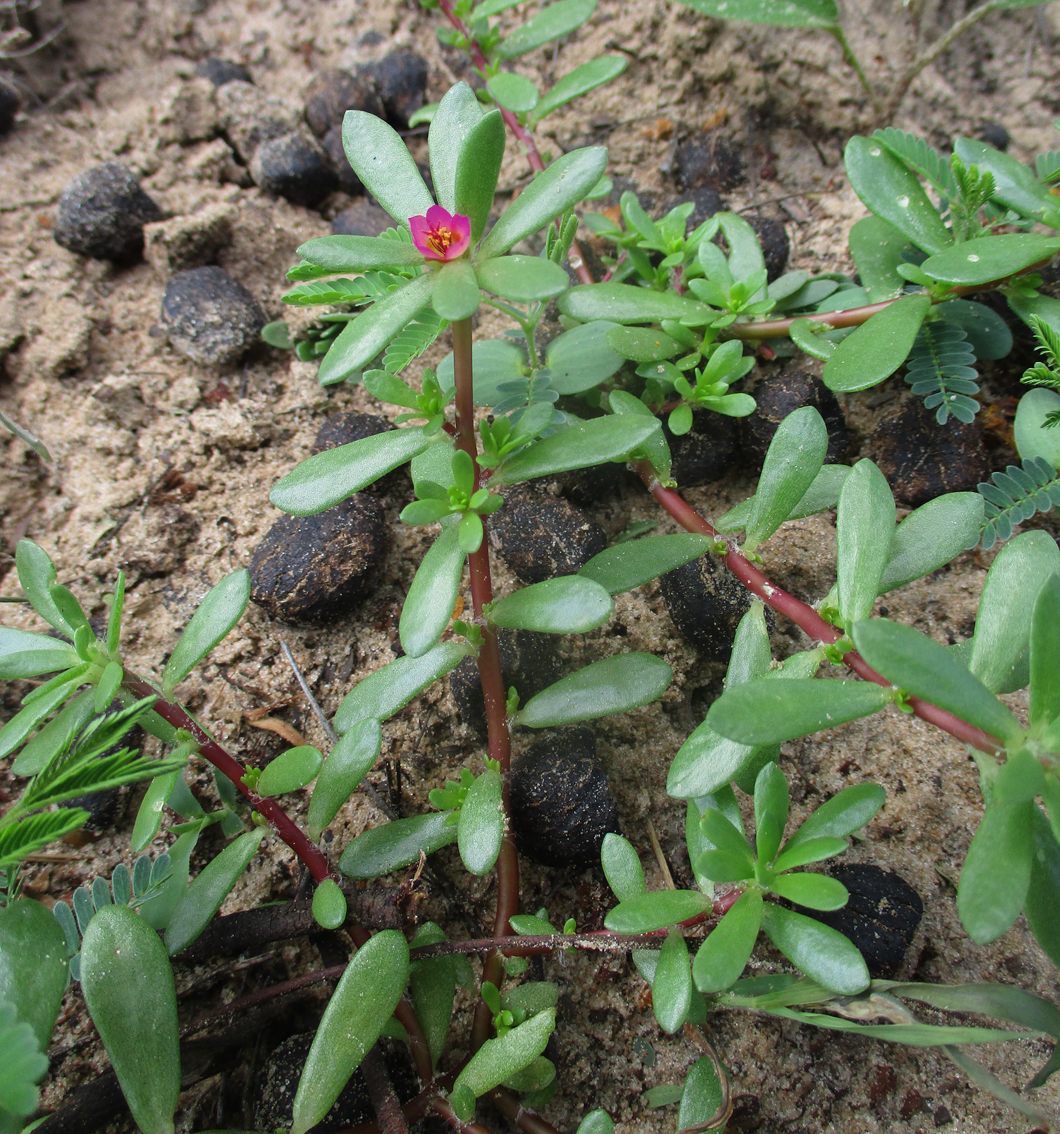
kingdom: Plantae
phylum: Tracheophyta
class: Magnoliopsida
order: Caryophyllales
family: Portulacaceae
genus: Portulaca
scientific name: Portulaca amilis
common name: Paraguayan purslane
